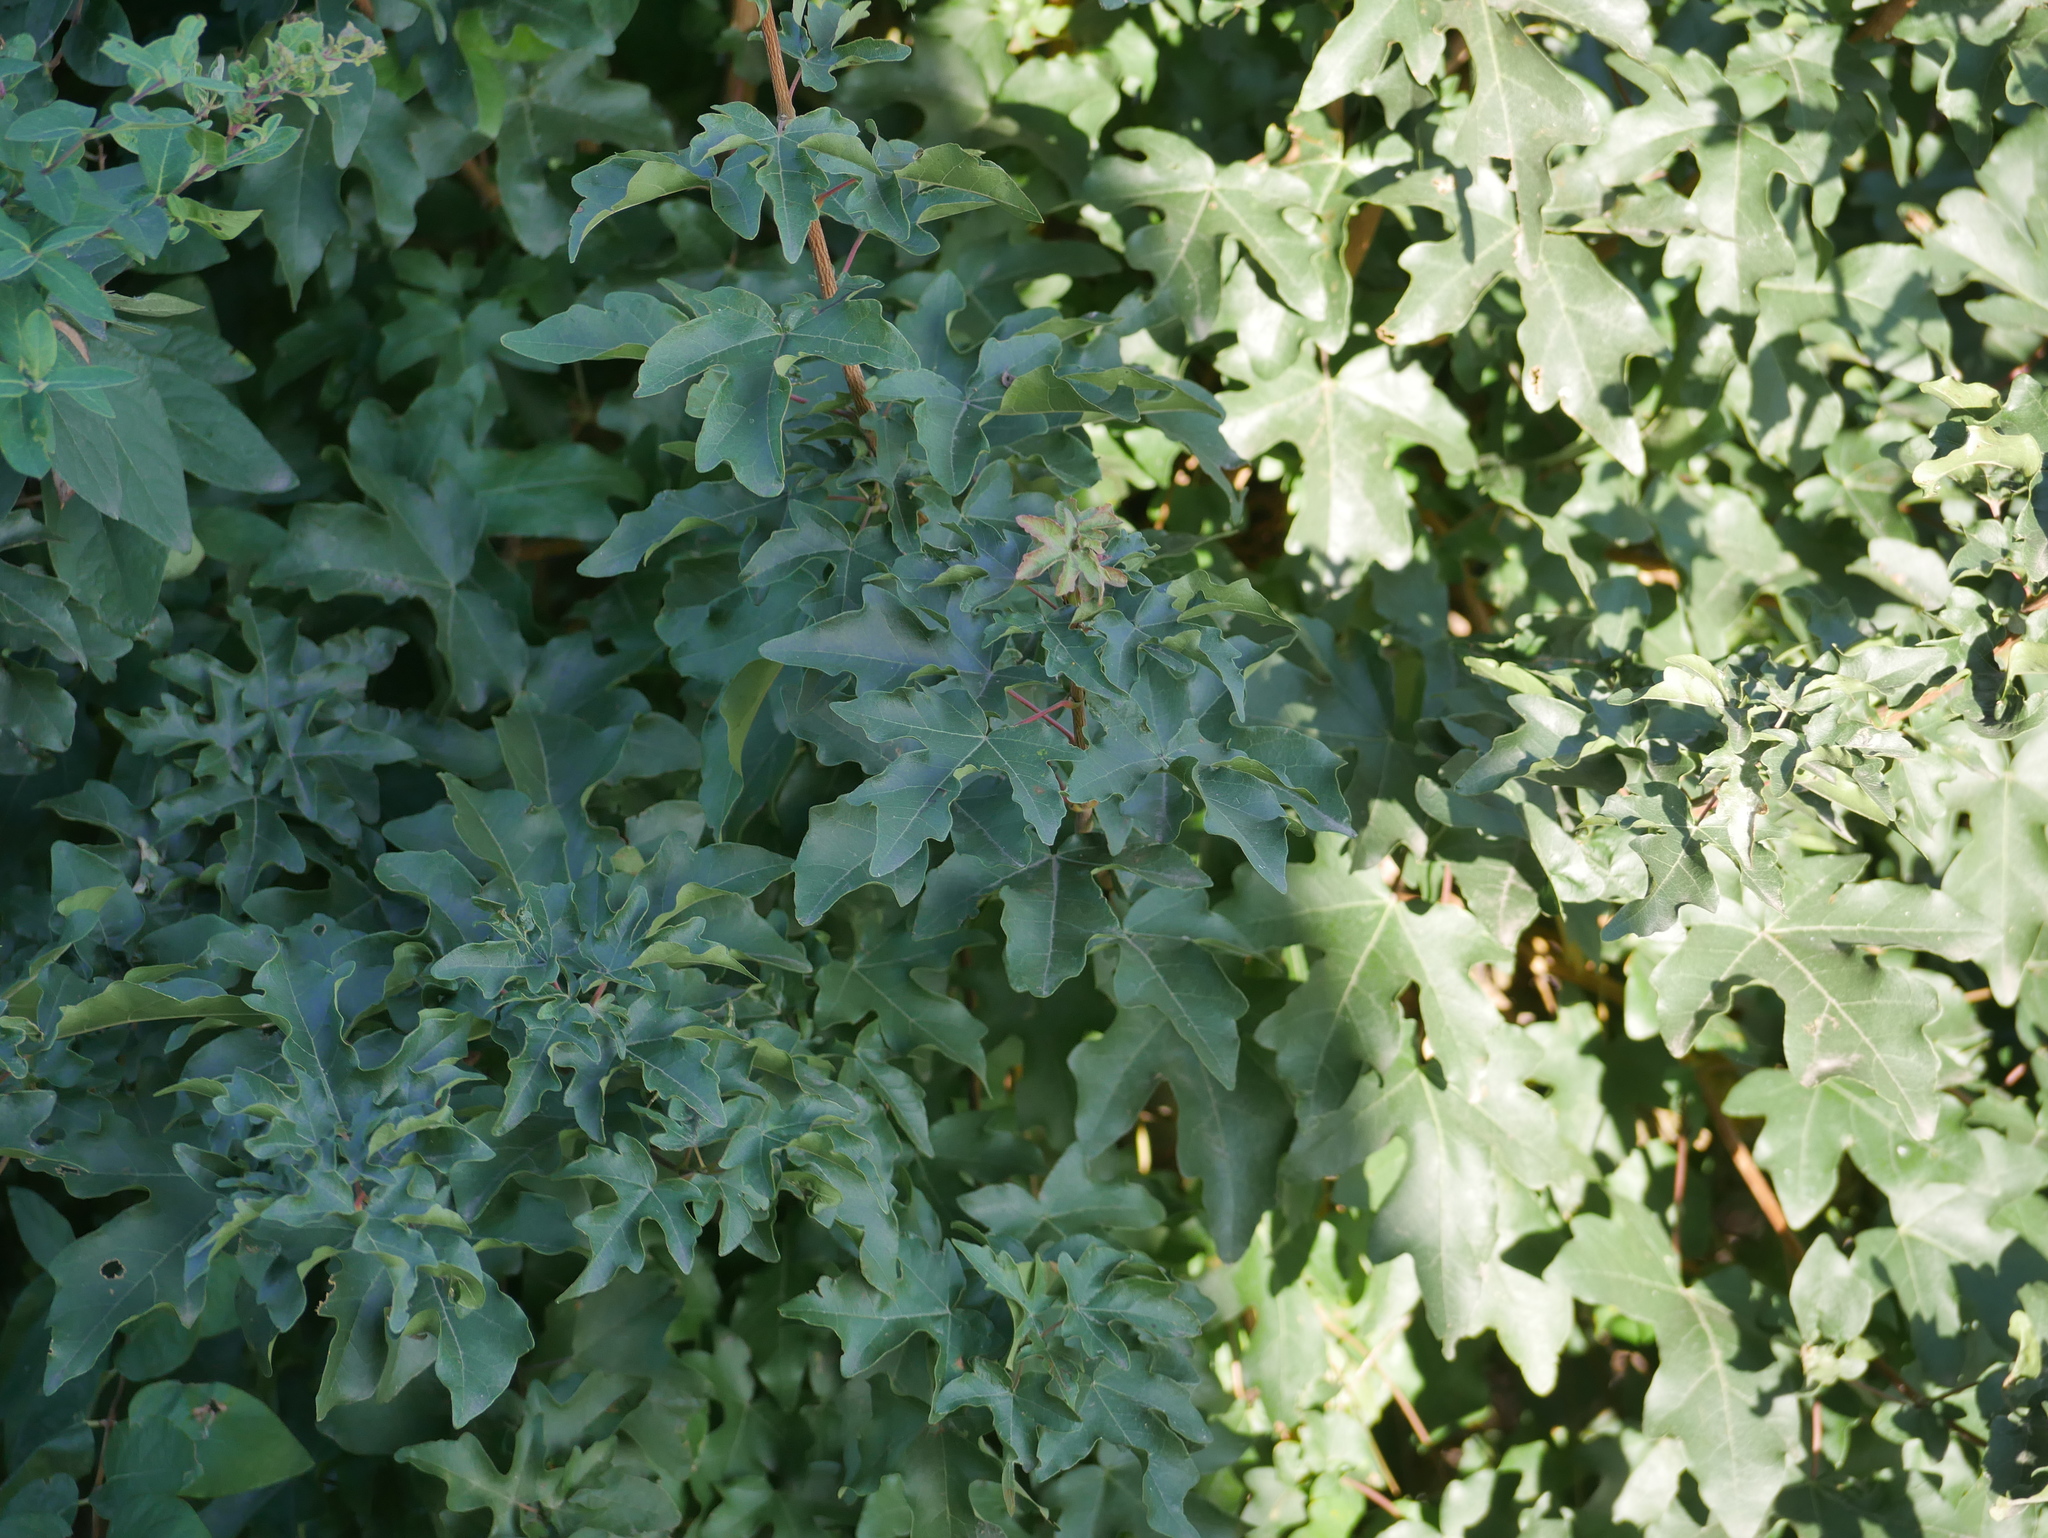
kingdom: Plantae
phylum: Tracheophyta
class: Magnoliopsida
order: Sapindales
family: Sapindaceae
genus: Acer
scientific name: Acer campestre
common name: Field maple
